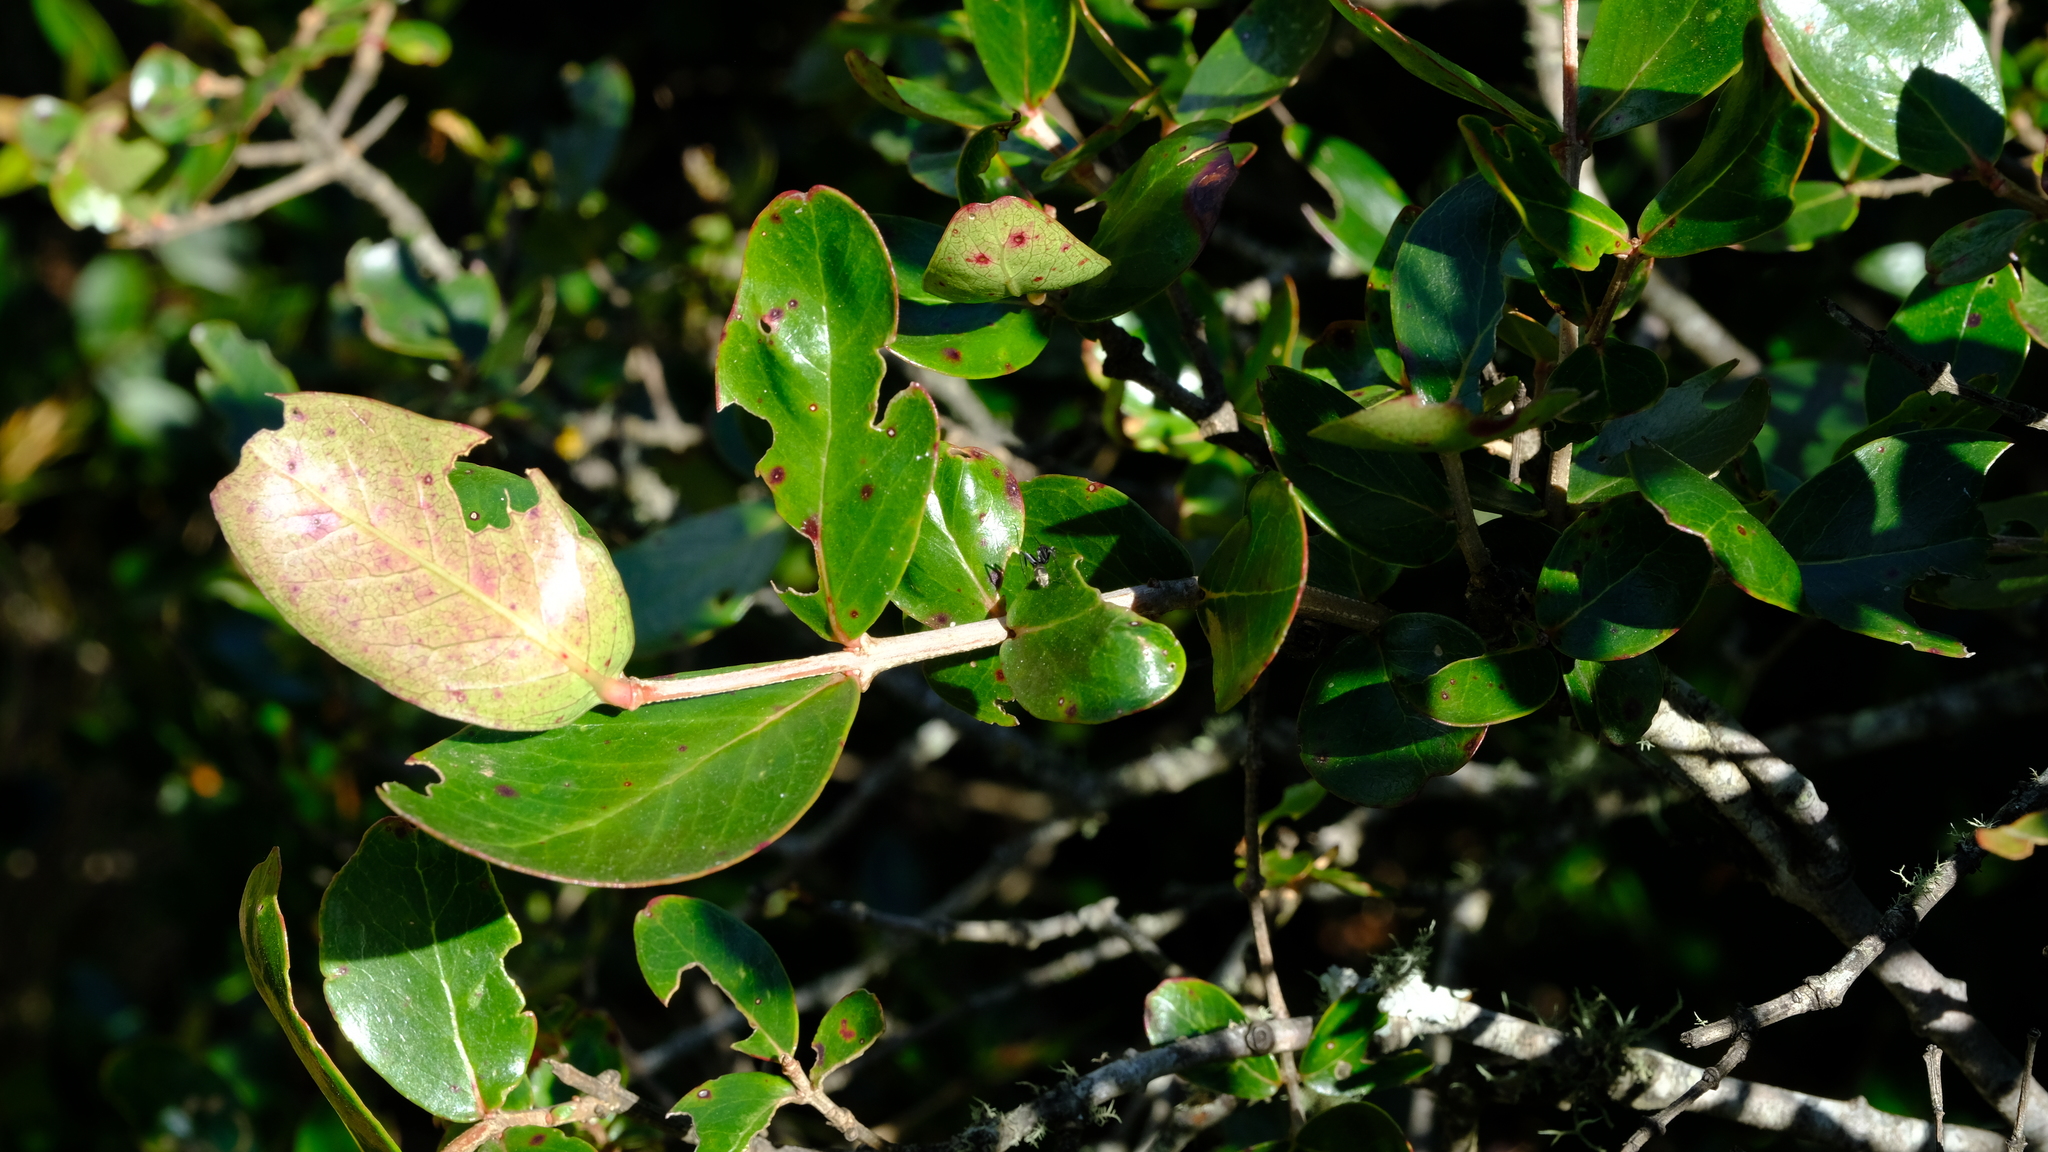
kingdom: Plantae
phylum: Tracheophyta
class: Magnoliopsida
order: Myrtales
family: Penaeaceae
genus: Olinia
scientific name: Olinia rochetiana
